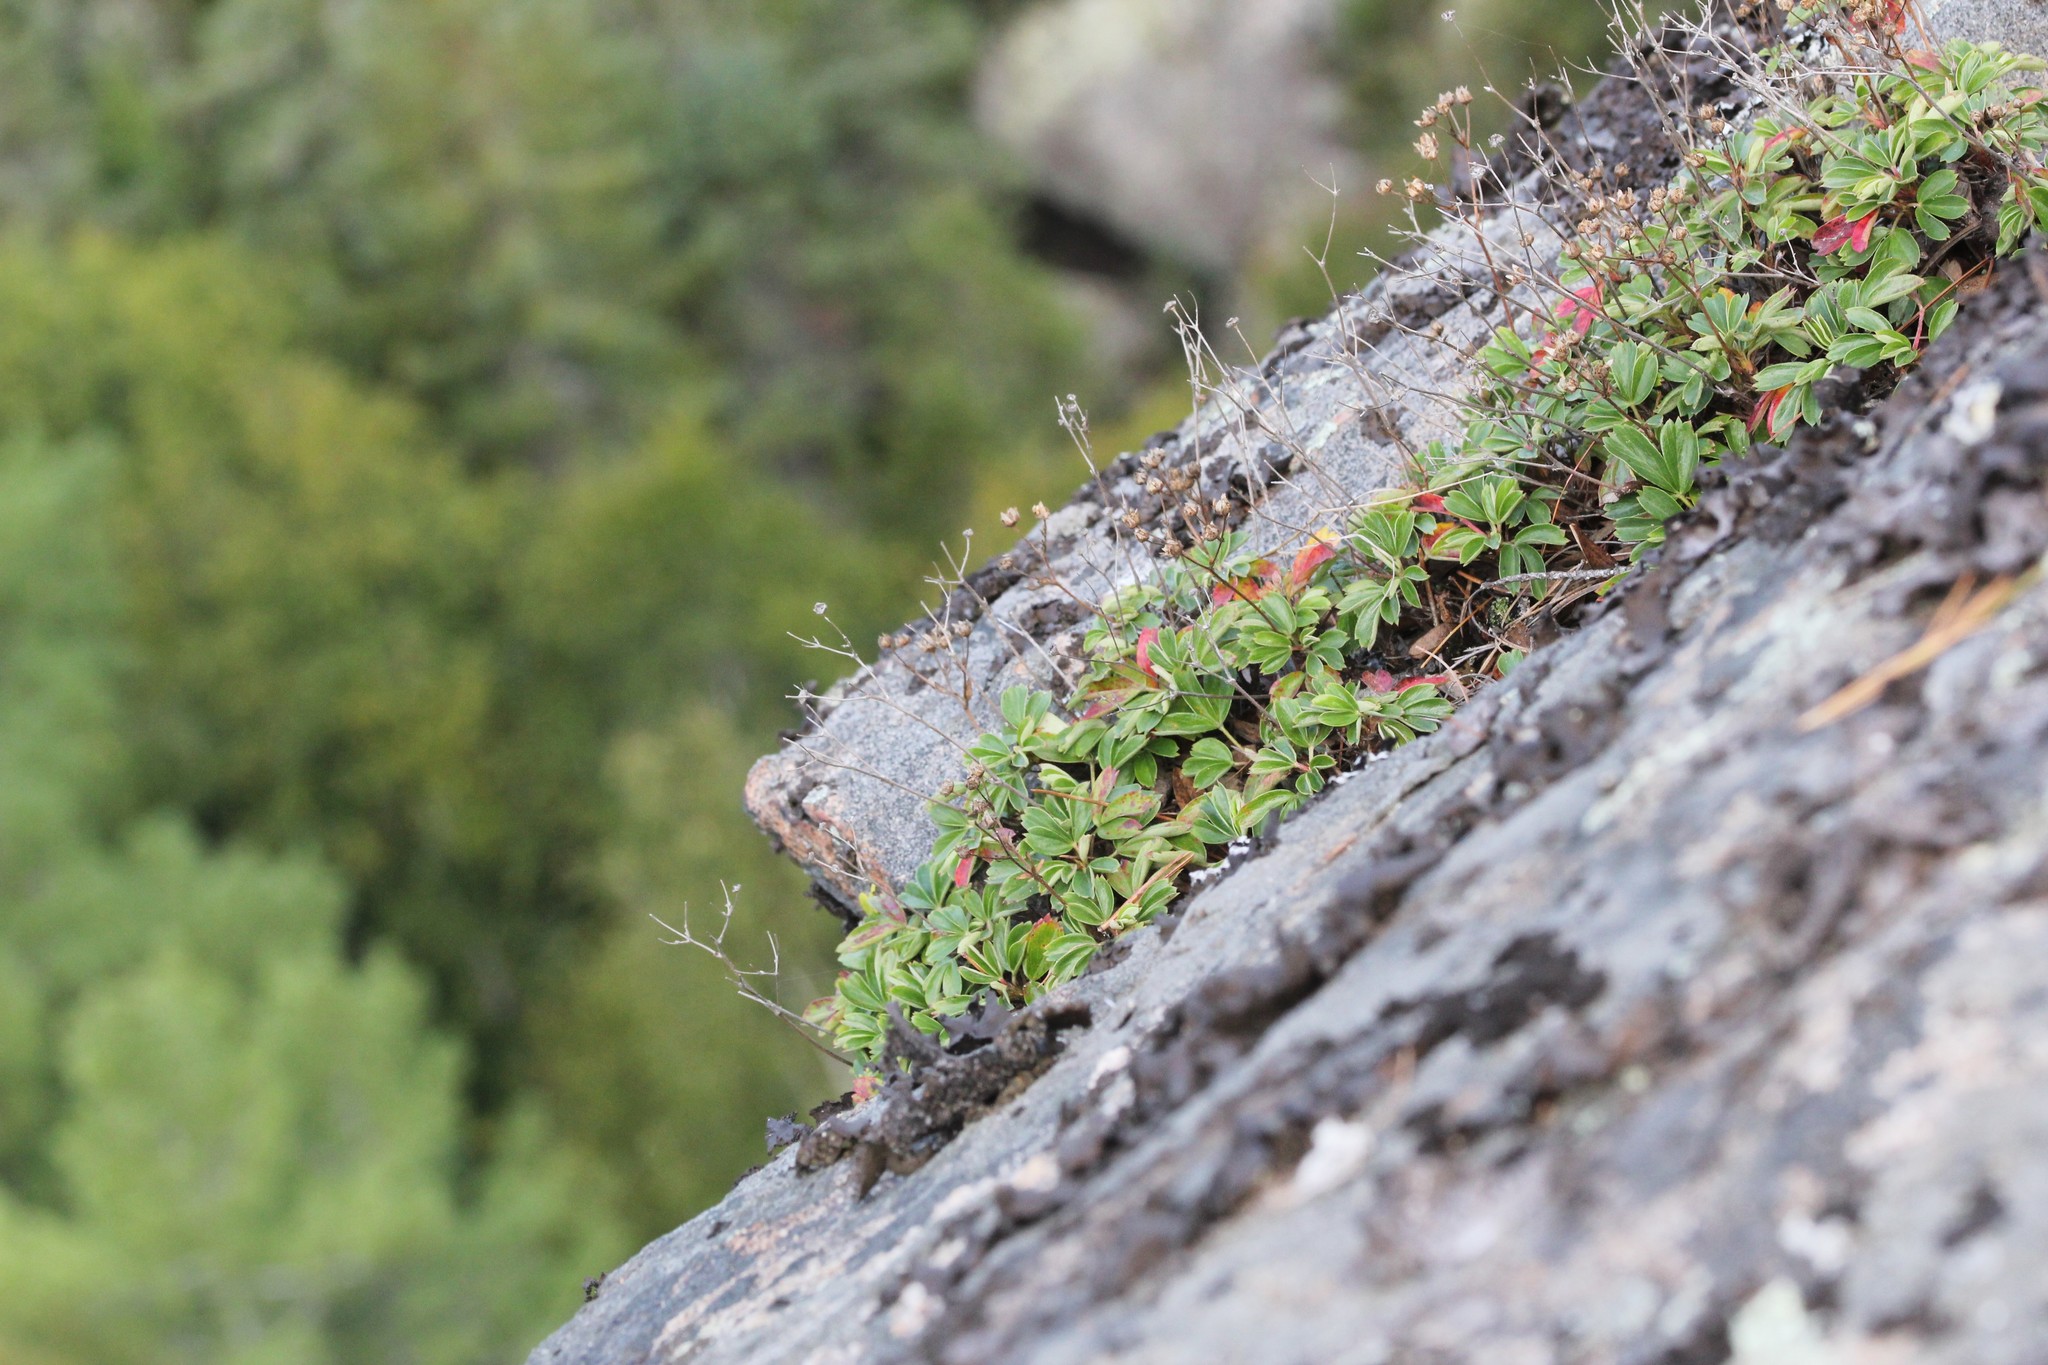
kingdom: Plantae
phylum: Tracheophyta
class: Magnoliopsida
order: Rosales
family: Rosaceae
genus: Sibbaldia
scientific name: Sibbaldia tridentata
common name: Three-toothed cinquefoil
